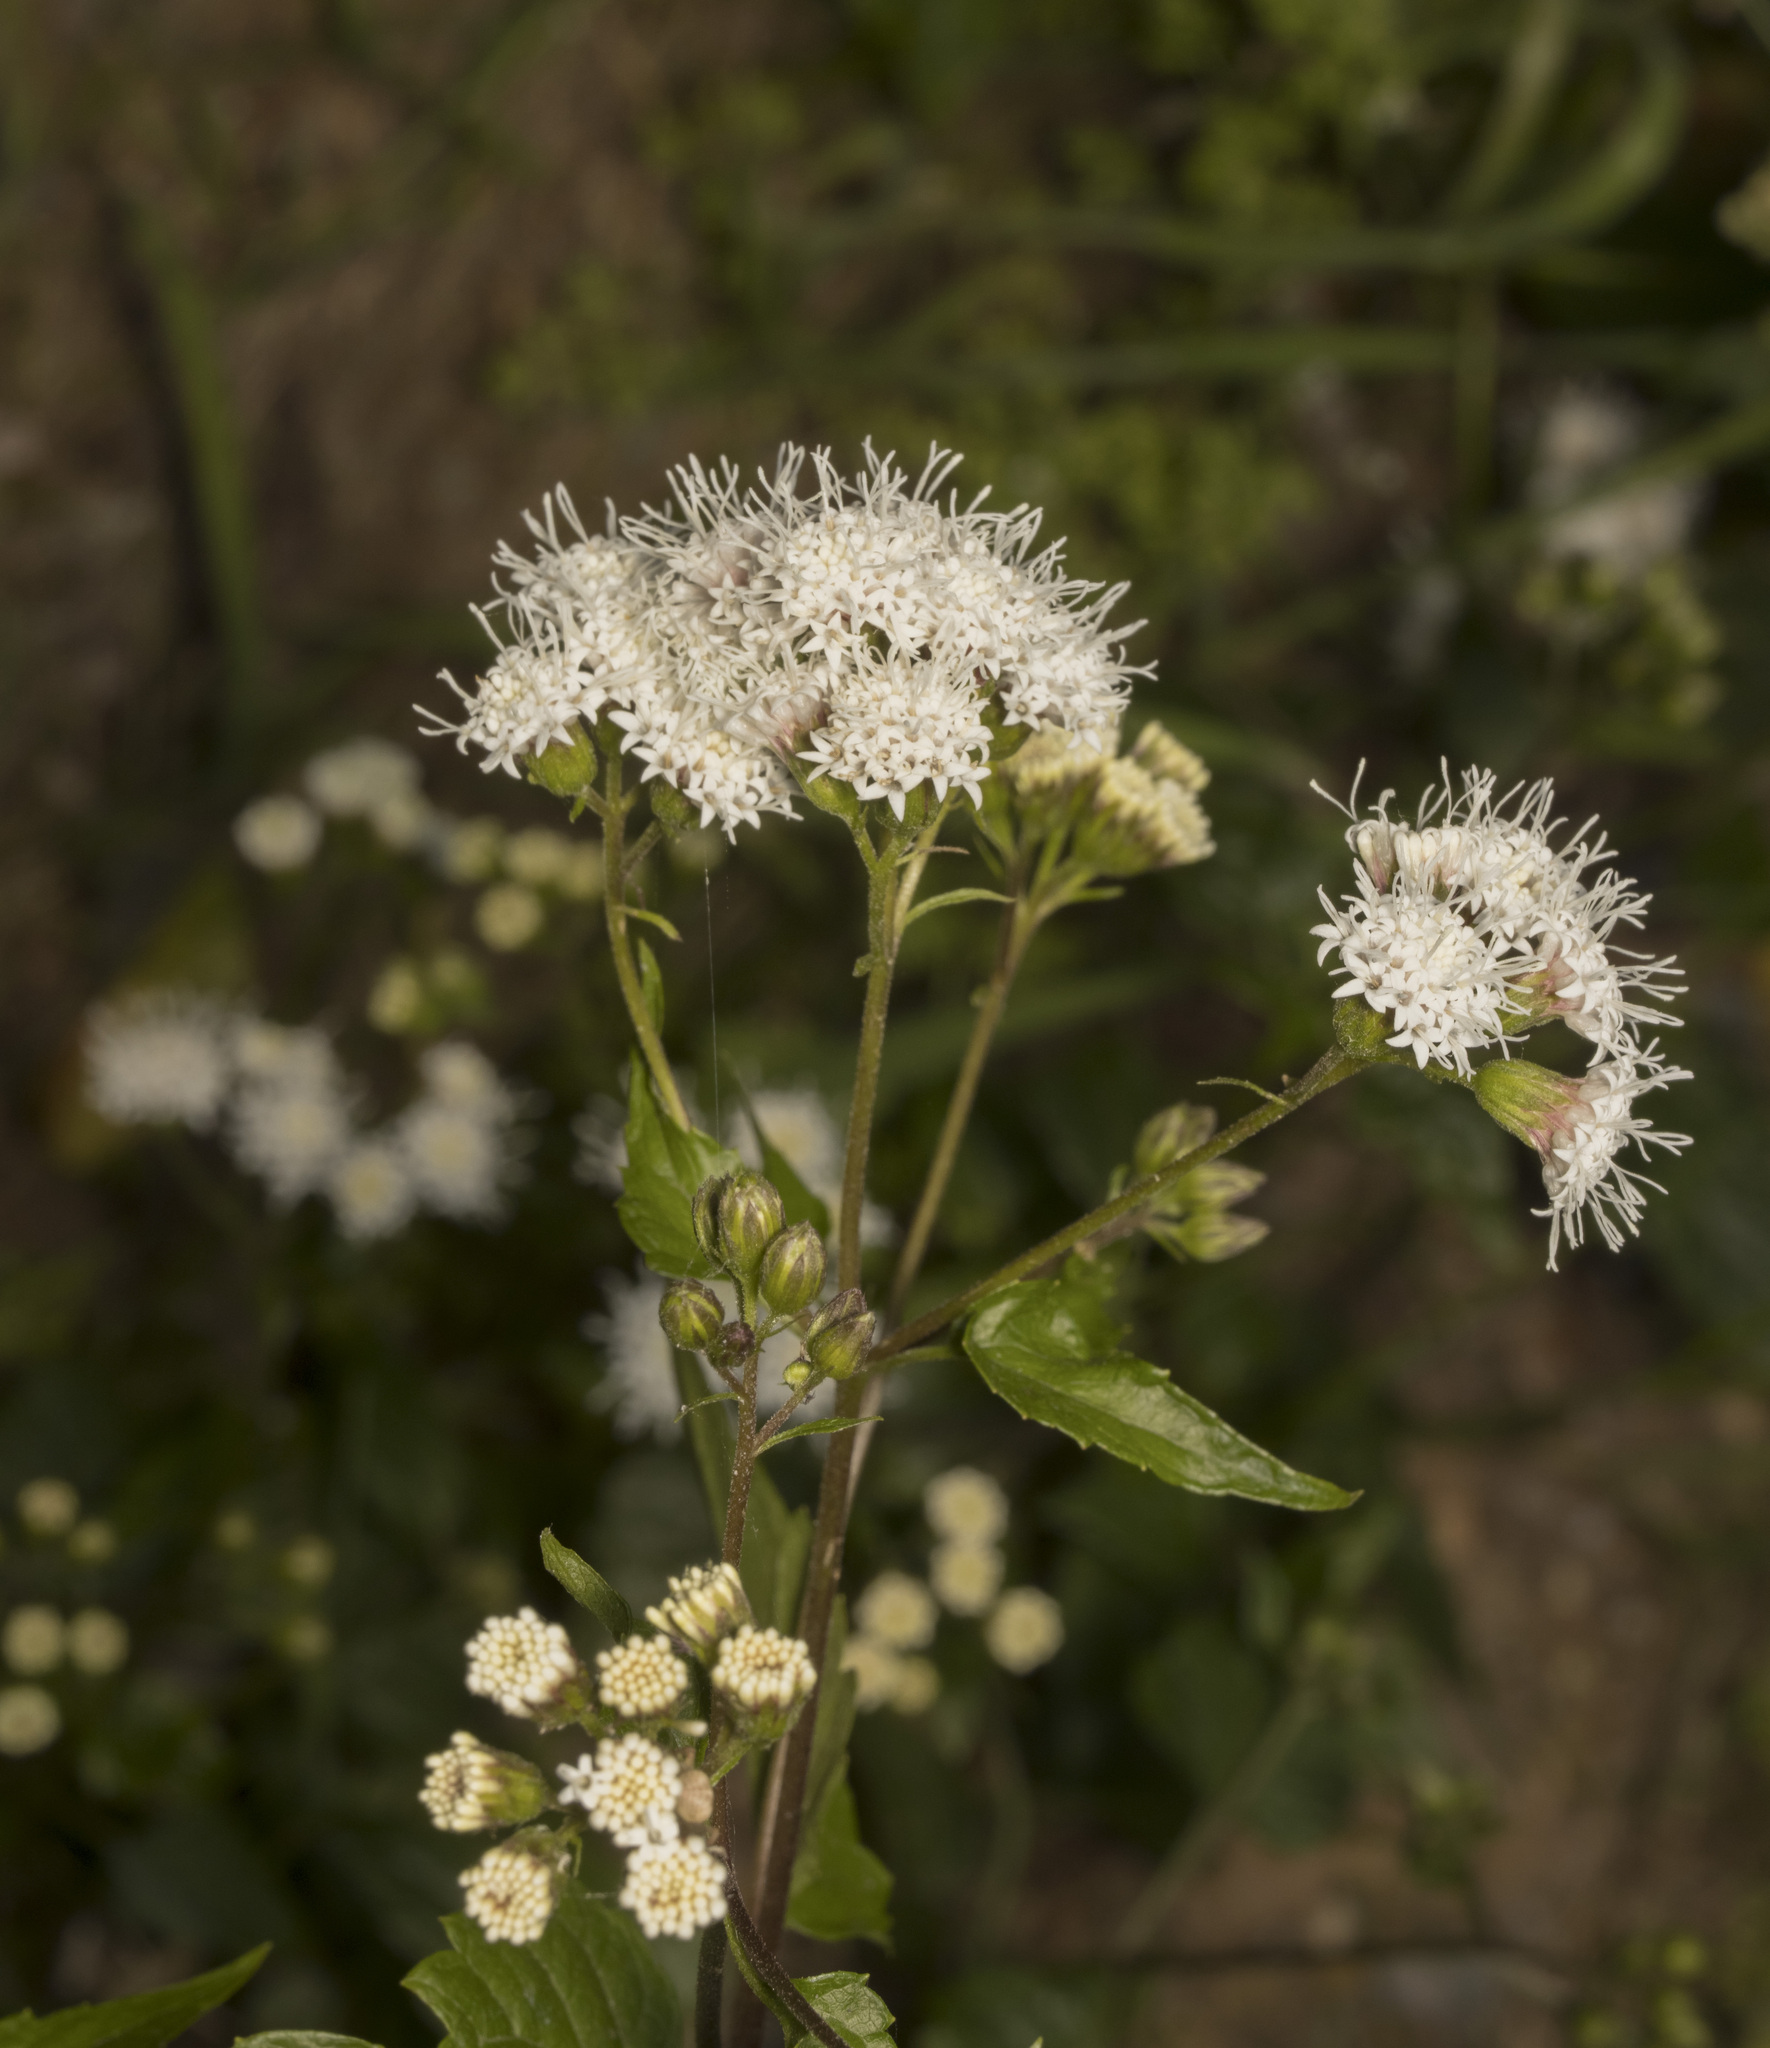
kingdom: Plantae
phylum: Tracheophyta
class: Magnoliopsida
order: Asterales
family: Asteraceae
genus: Ageratina
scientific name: Ageratina glechonophylla
